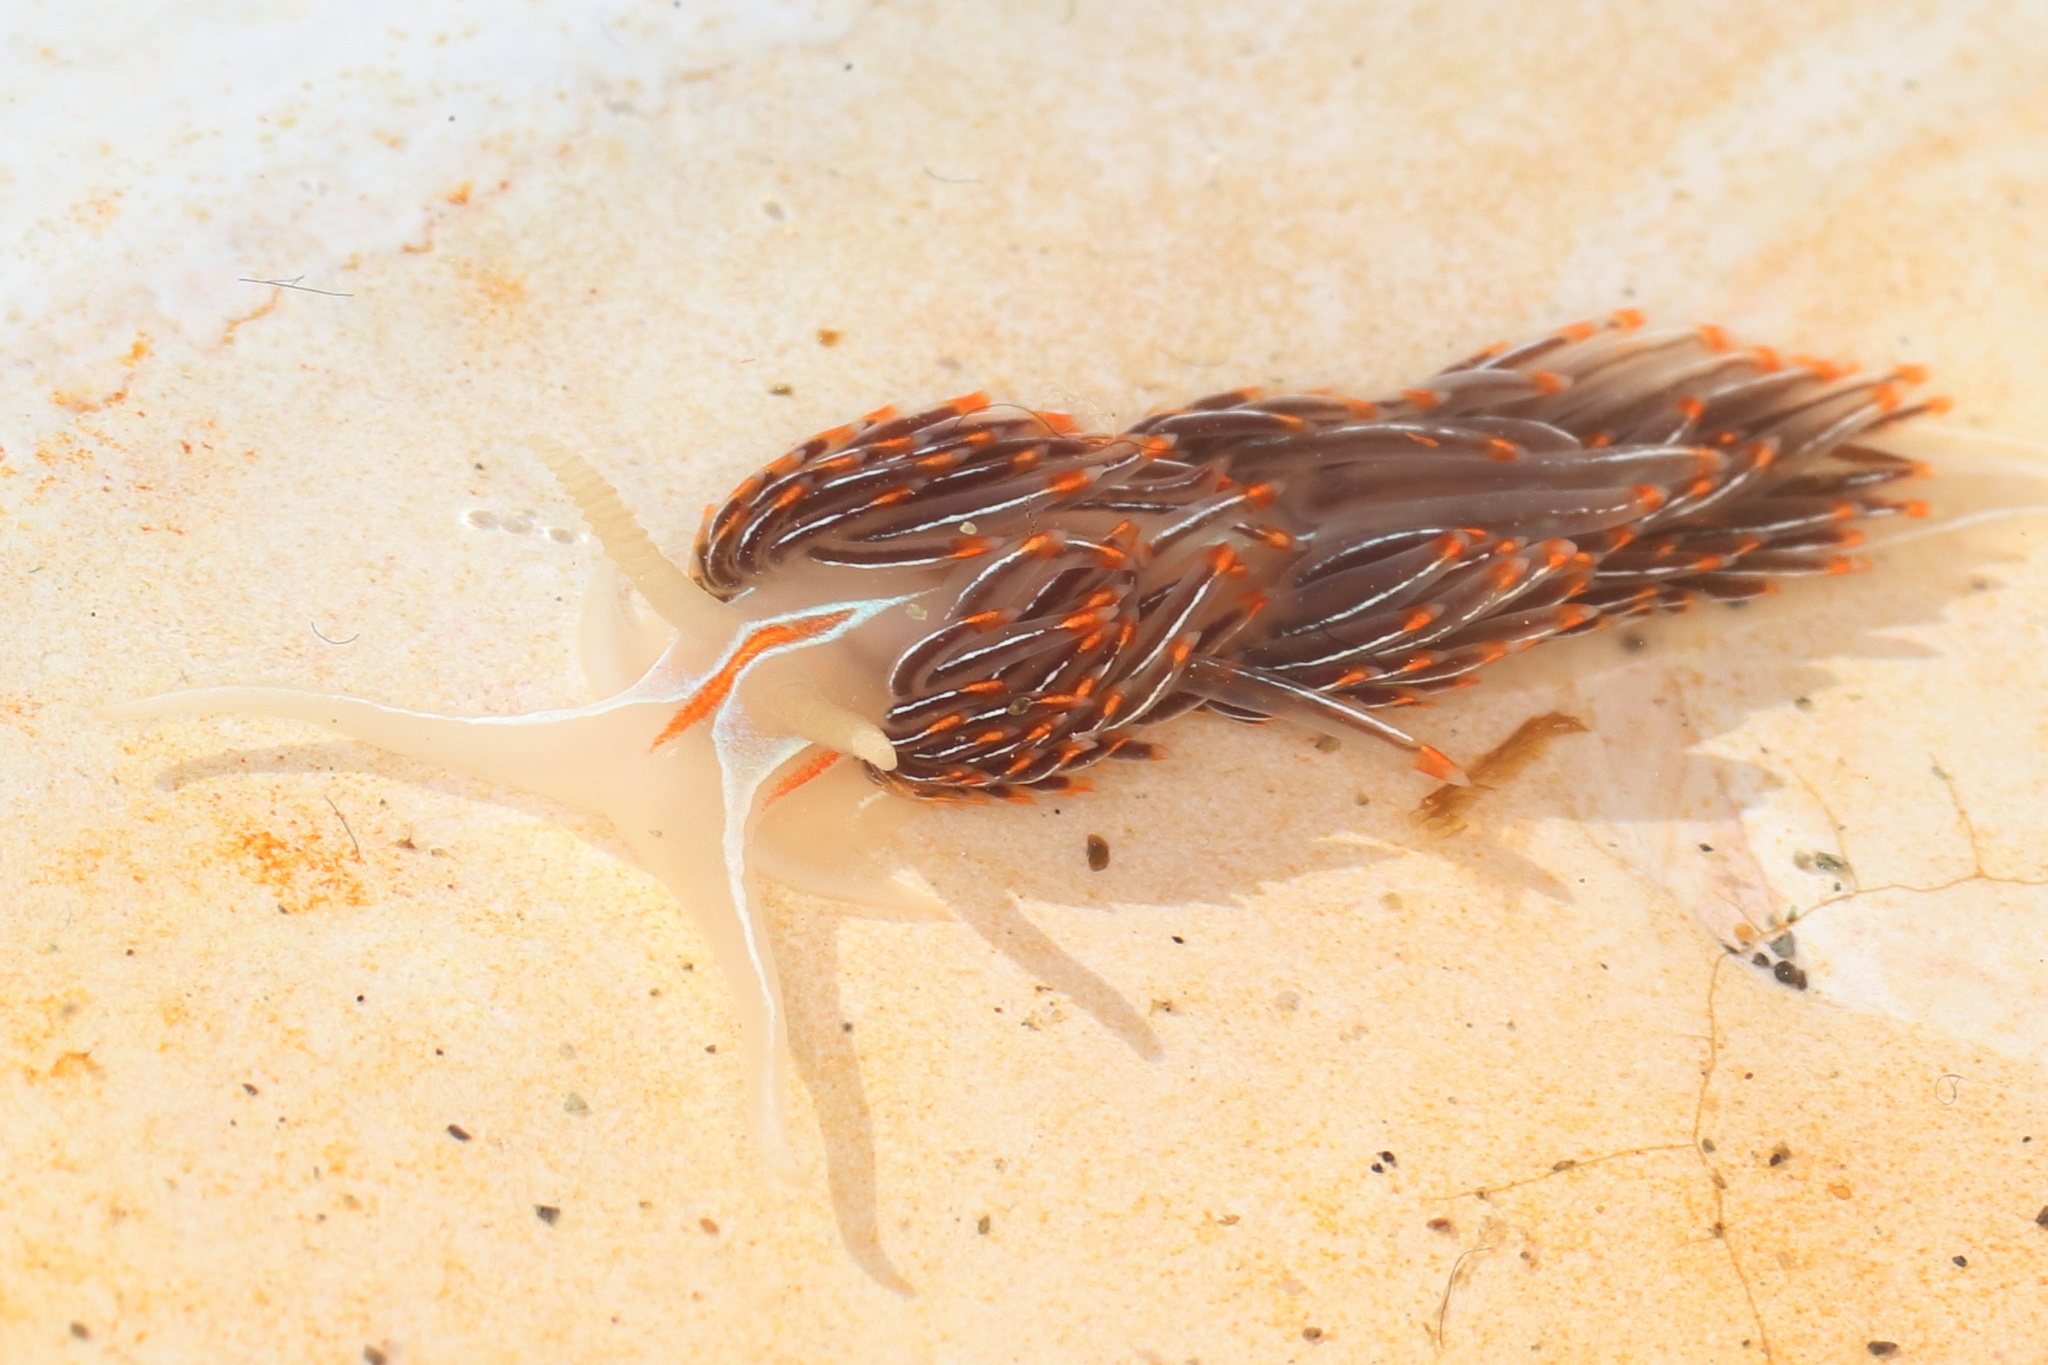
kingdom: Animalia
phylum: Mollusca
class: Gastropoda
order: Nudibranchia
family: Myrrhinidae
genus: Hermissenda
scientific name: Hermissenda crassicornis
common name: Hermissenda
